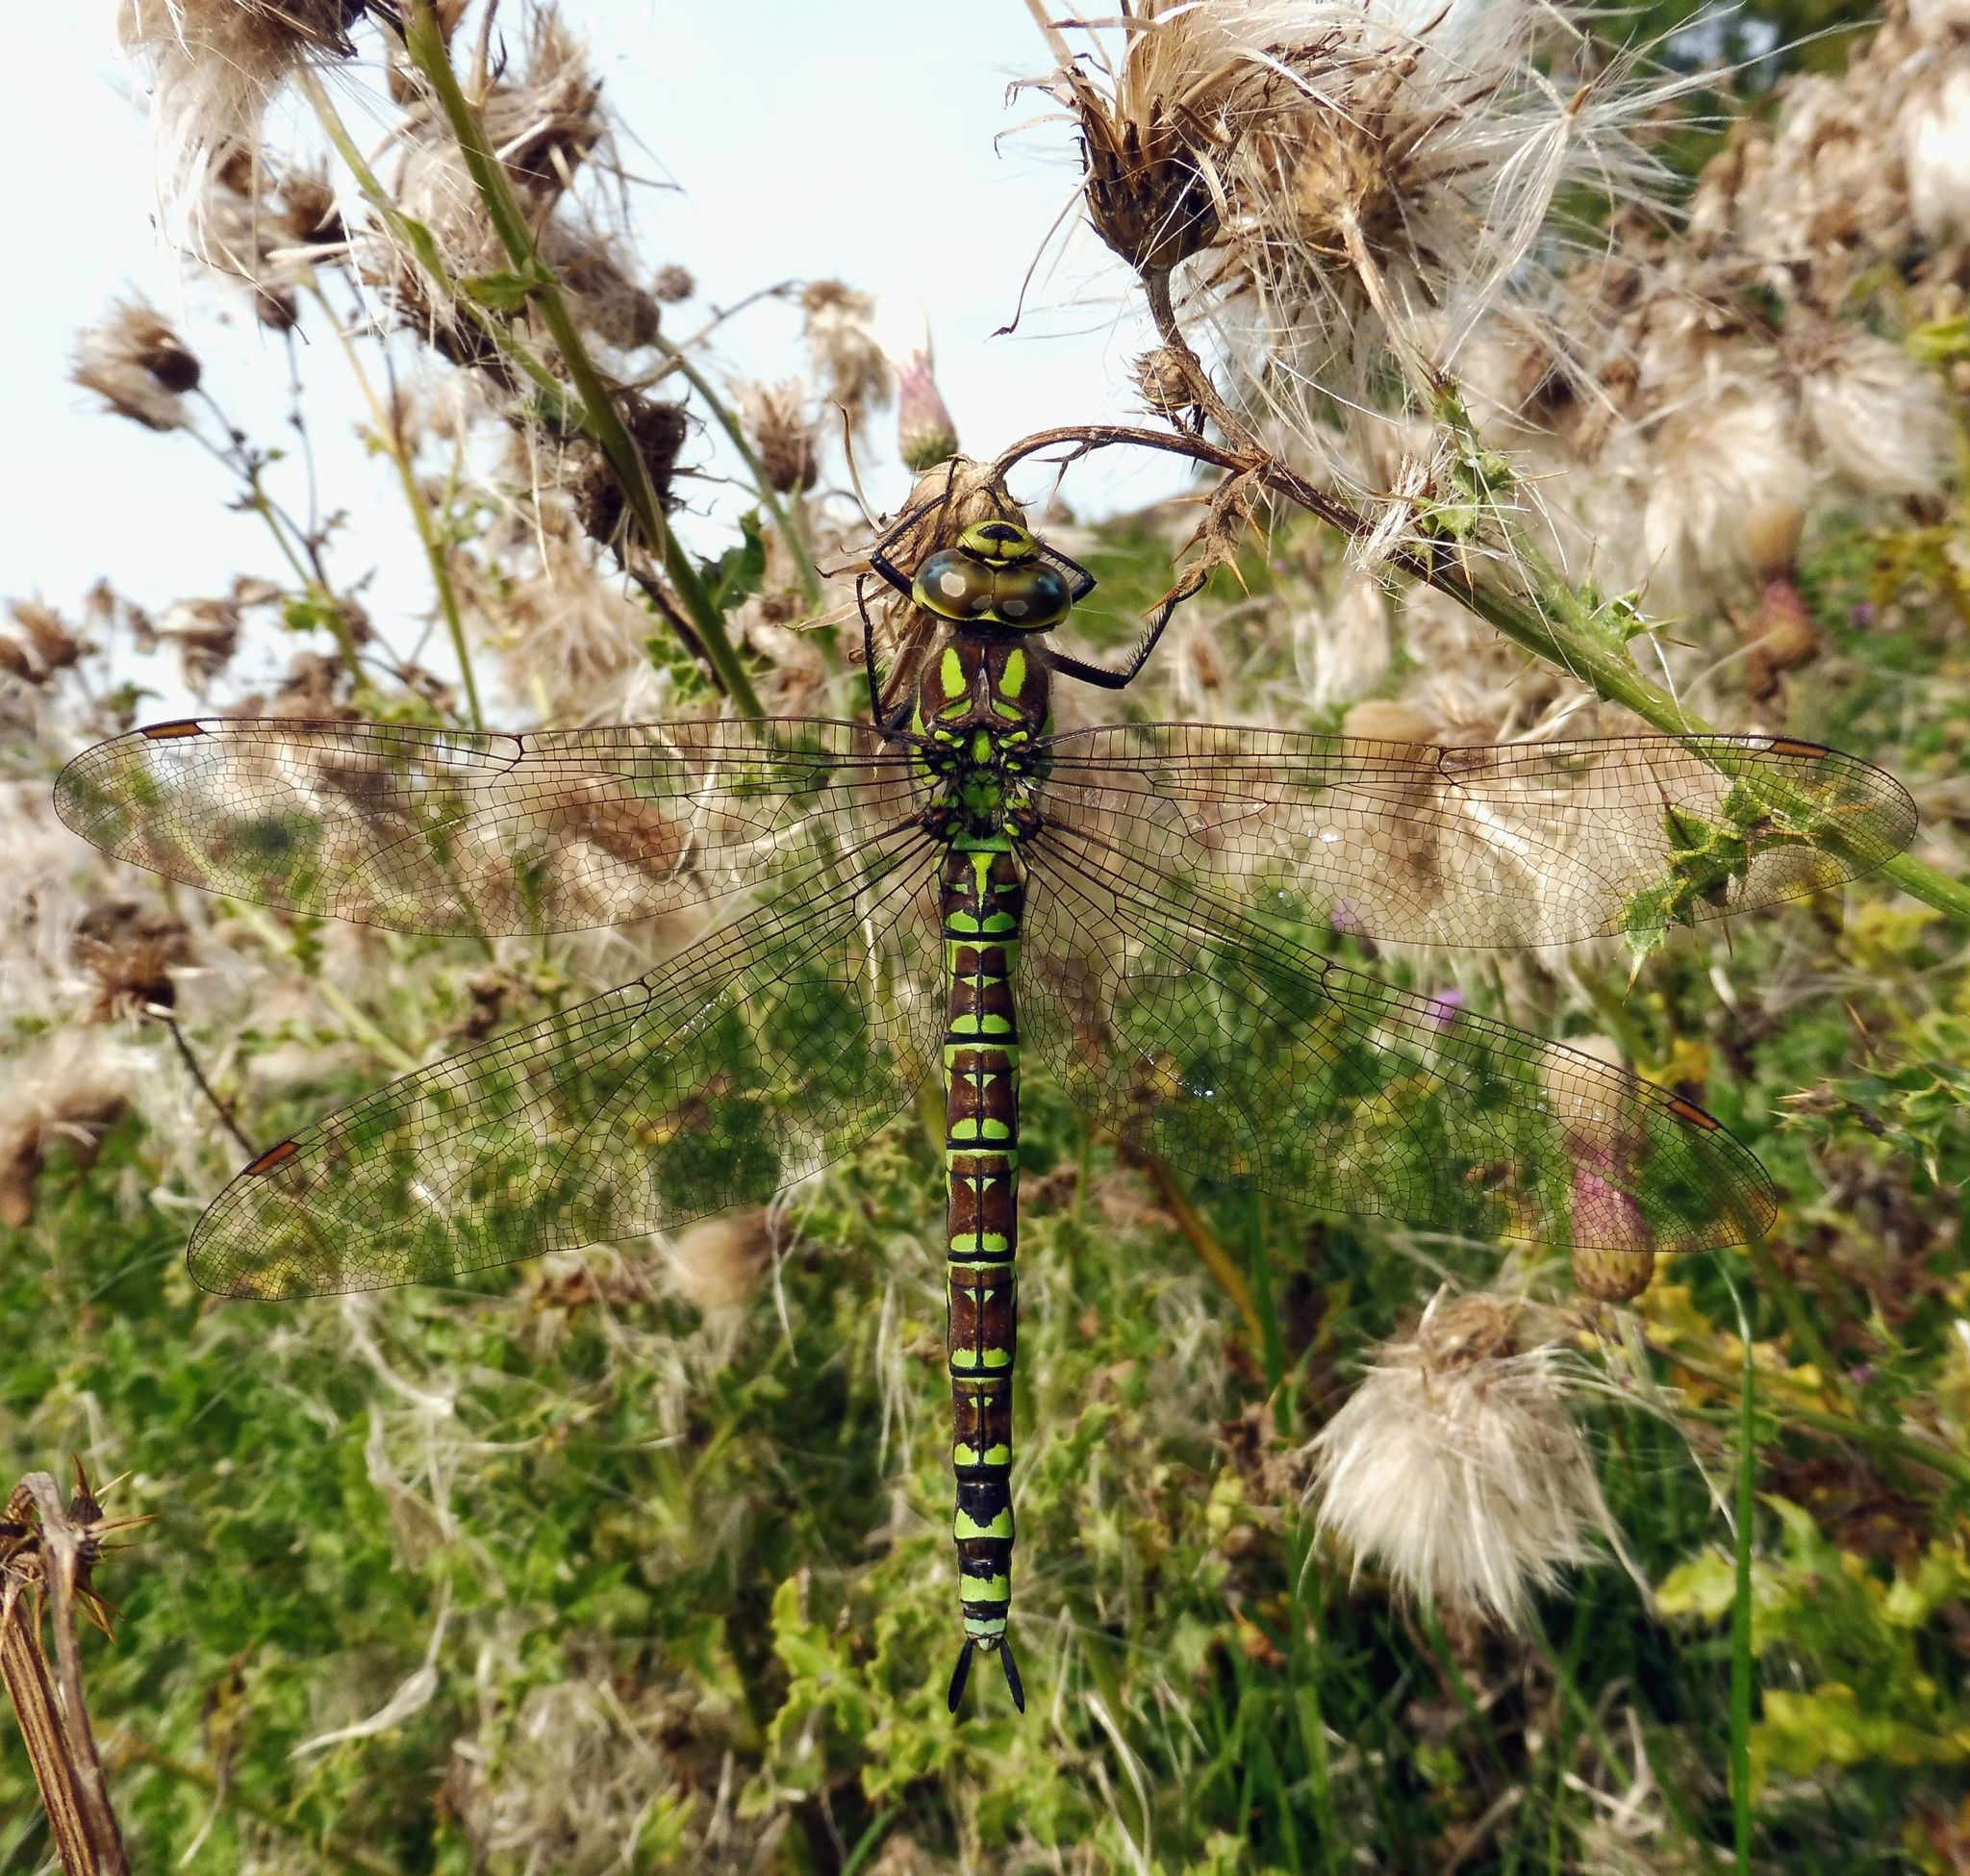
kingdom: Animalia
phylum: Arthropoda
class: Insecta
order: Odonata
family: Aeshnidae
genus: Aeshna
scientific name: Aeshna cyanea
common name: Southern hawker
